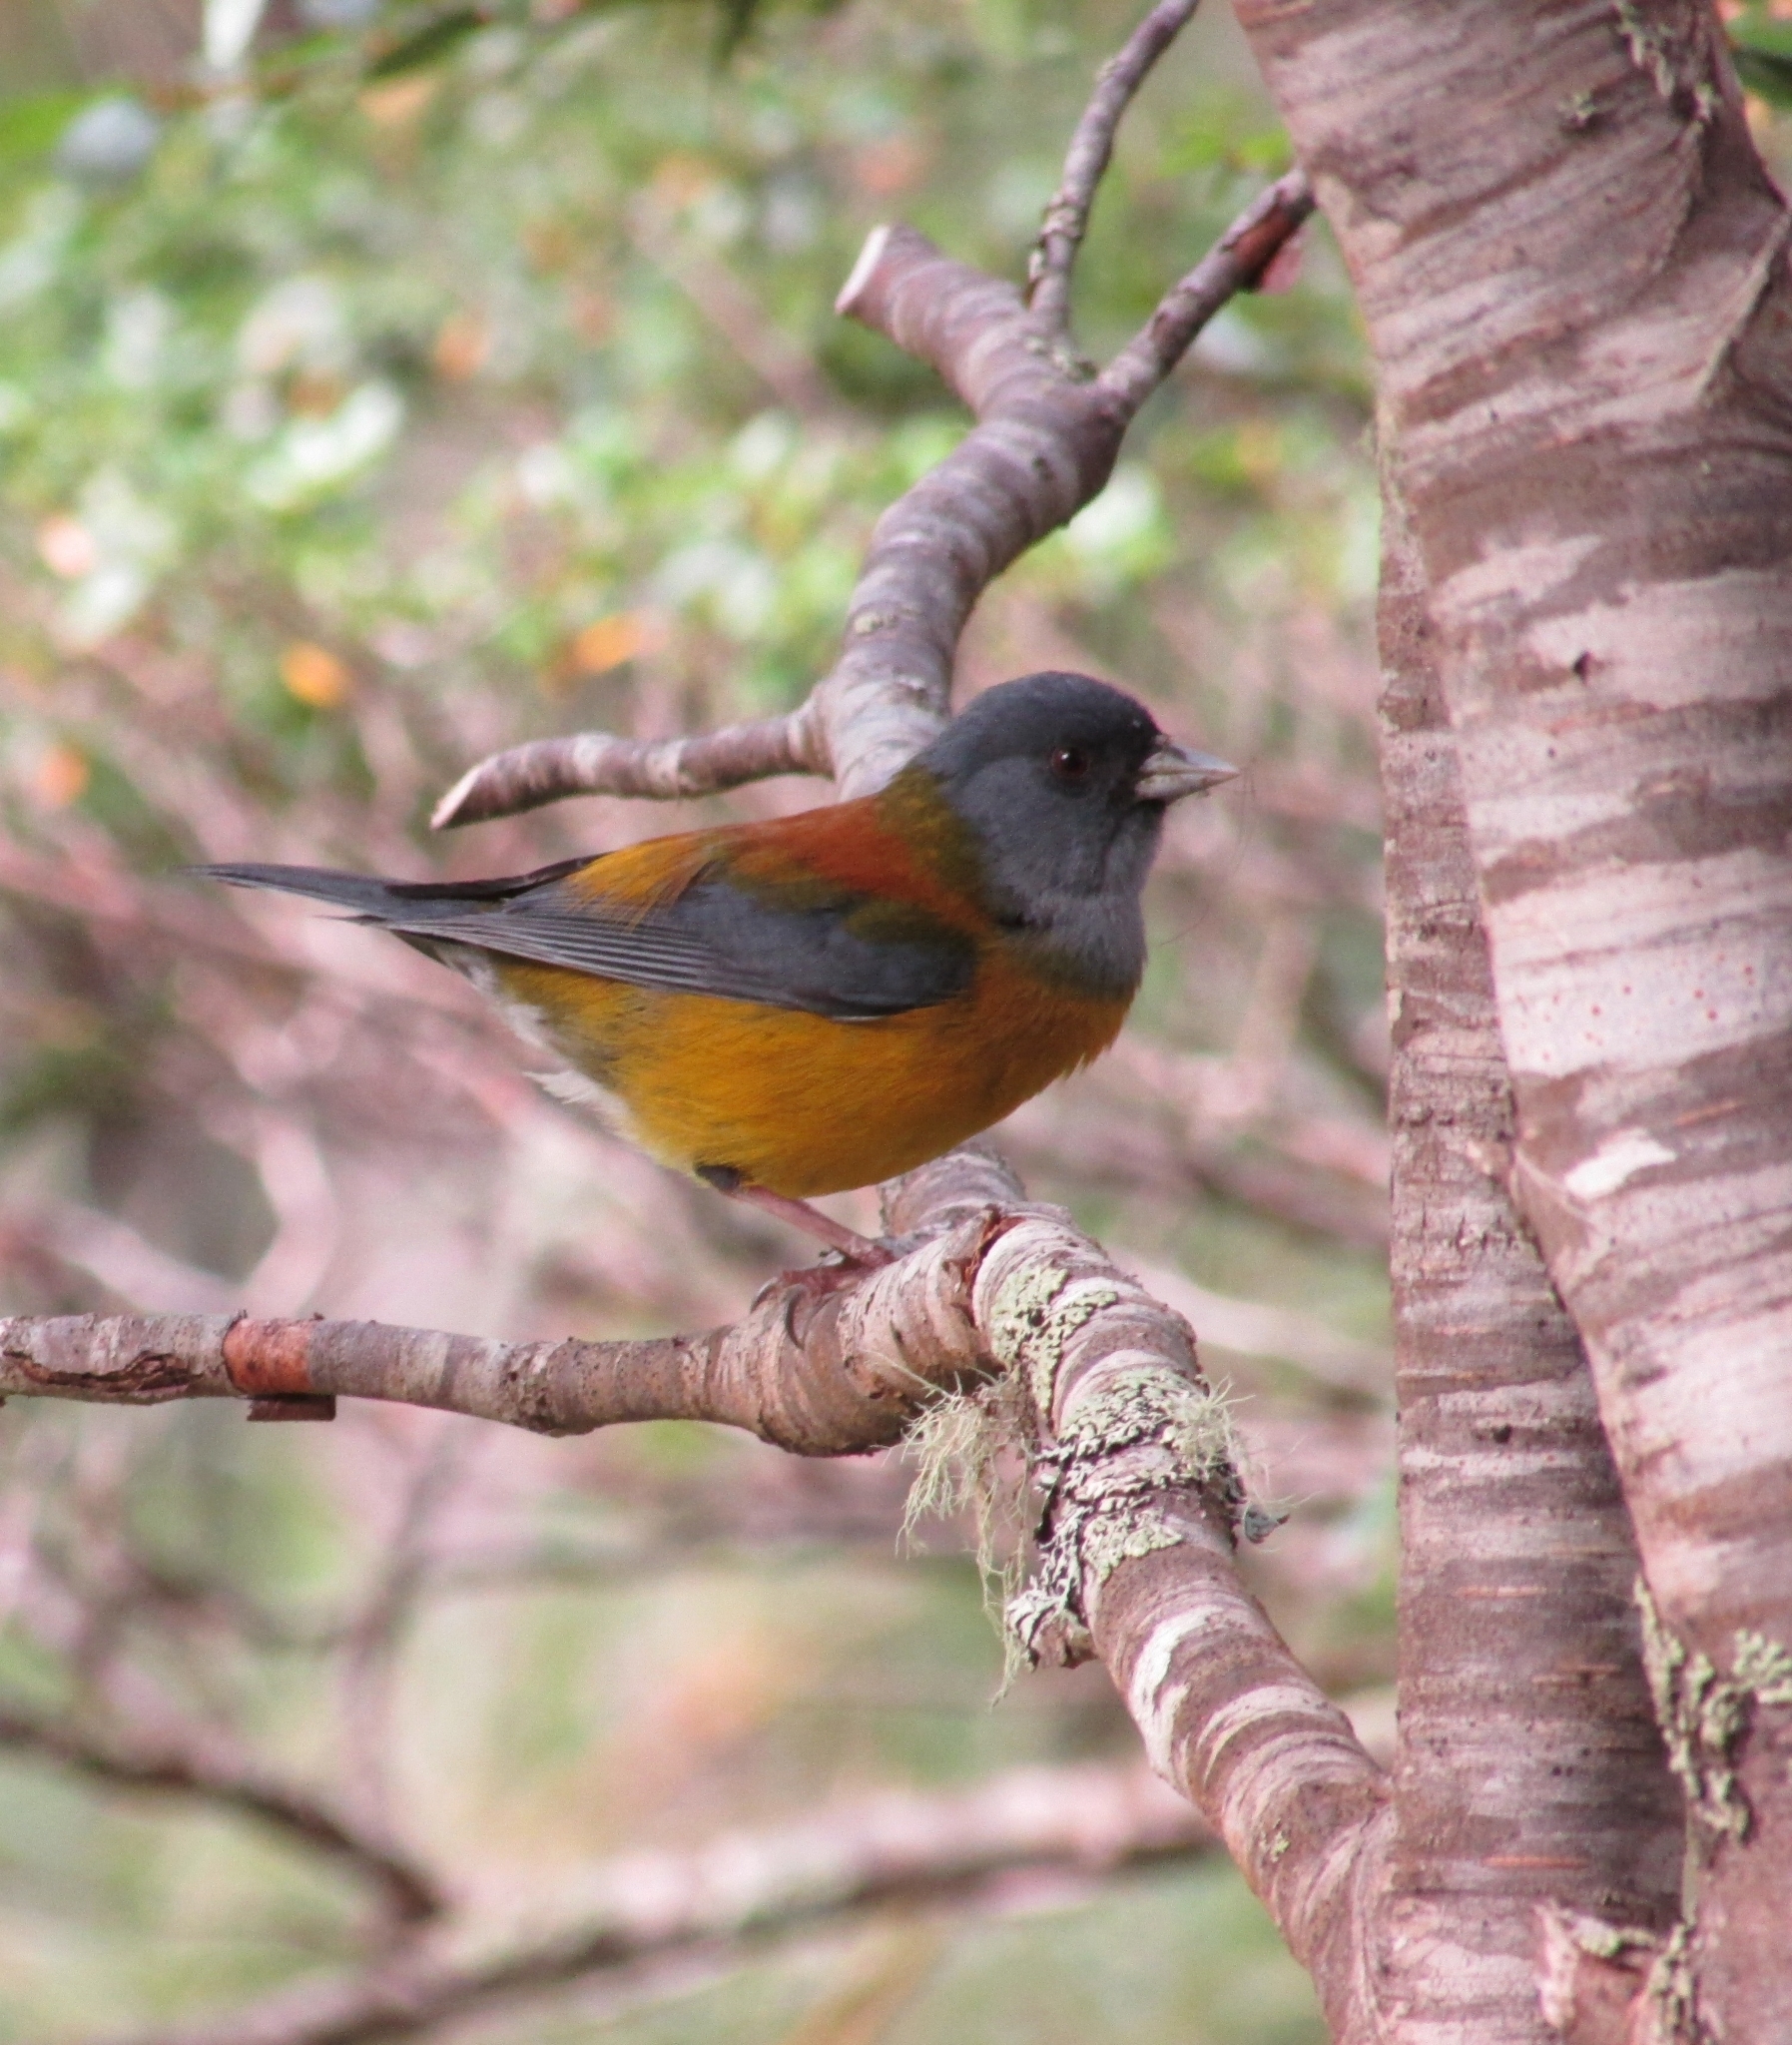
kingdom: Animalia
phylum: Chordata
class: Aves
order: Passeriformes
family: Thraupidae
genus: Phrygilus
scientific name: Phrygilus patagonicus
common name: Patagonian sierra finch
